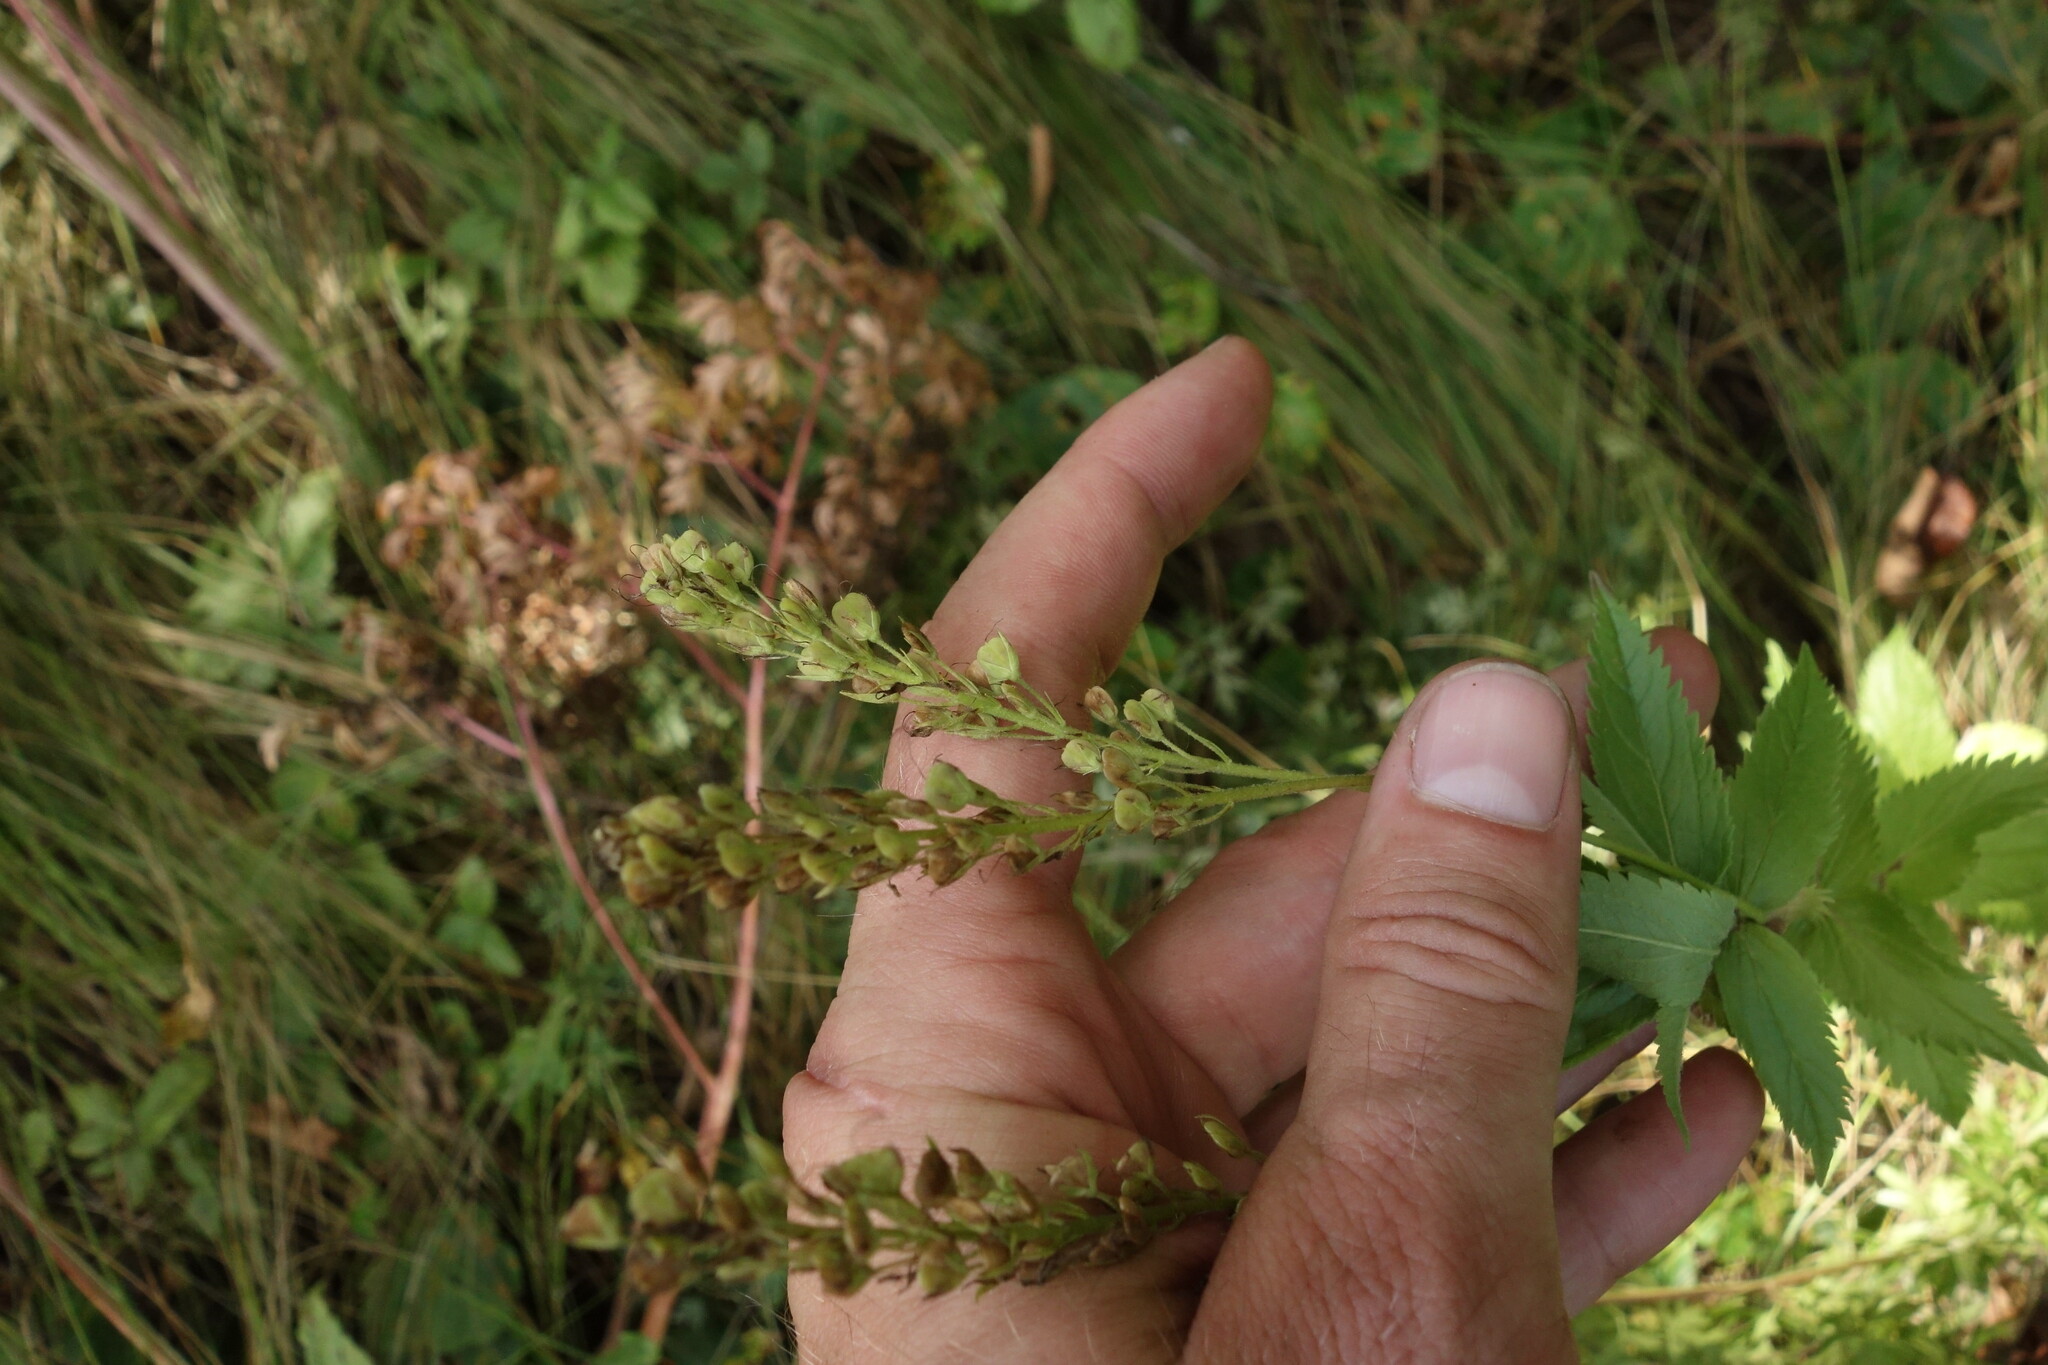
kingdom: Plantae
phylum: Tracheophyta
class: Magnoliopsida
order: Lamiales
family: Plantaginaceae
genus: Veronica
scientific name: Veronica teucrium
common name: Large speedwell
